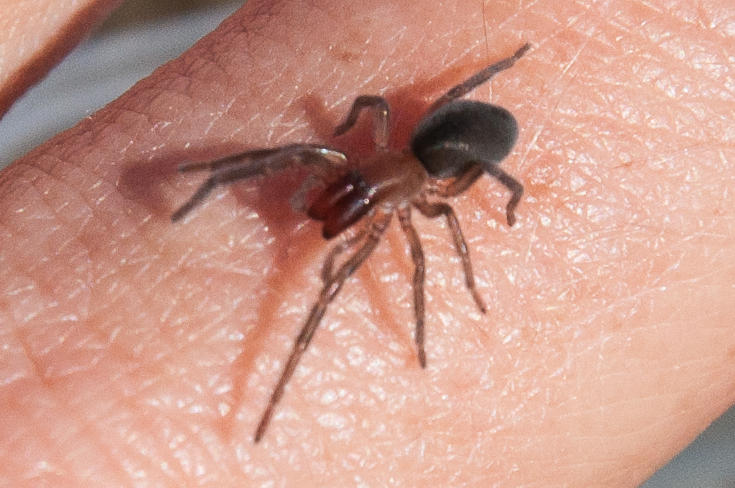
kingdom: Animalia
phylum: Arthropoda
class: Arachnida
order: Araneae
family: Desidae
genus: Desis
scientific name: Desis formidabilis
